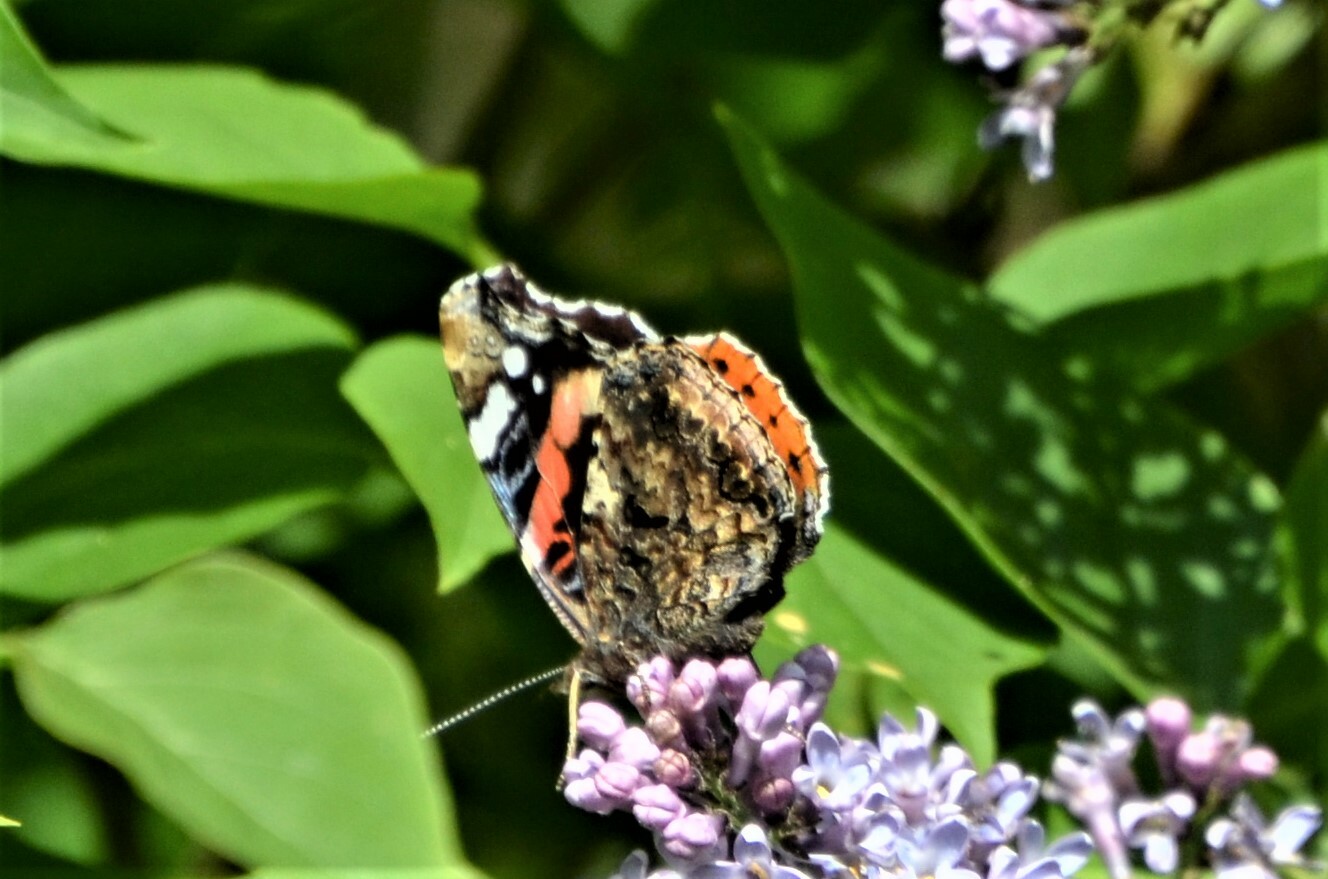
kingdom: Animalia
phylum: Arthropoda
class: Insecta
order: Lepidoptera
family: Nymphalidae
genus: Vanessa
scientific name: Vanessa atalanta
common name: Red admiral
